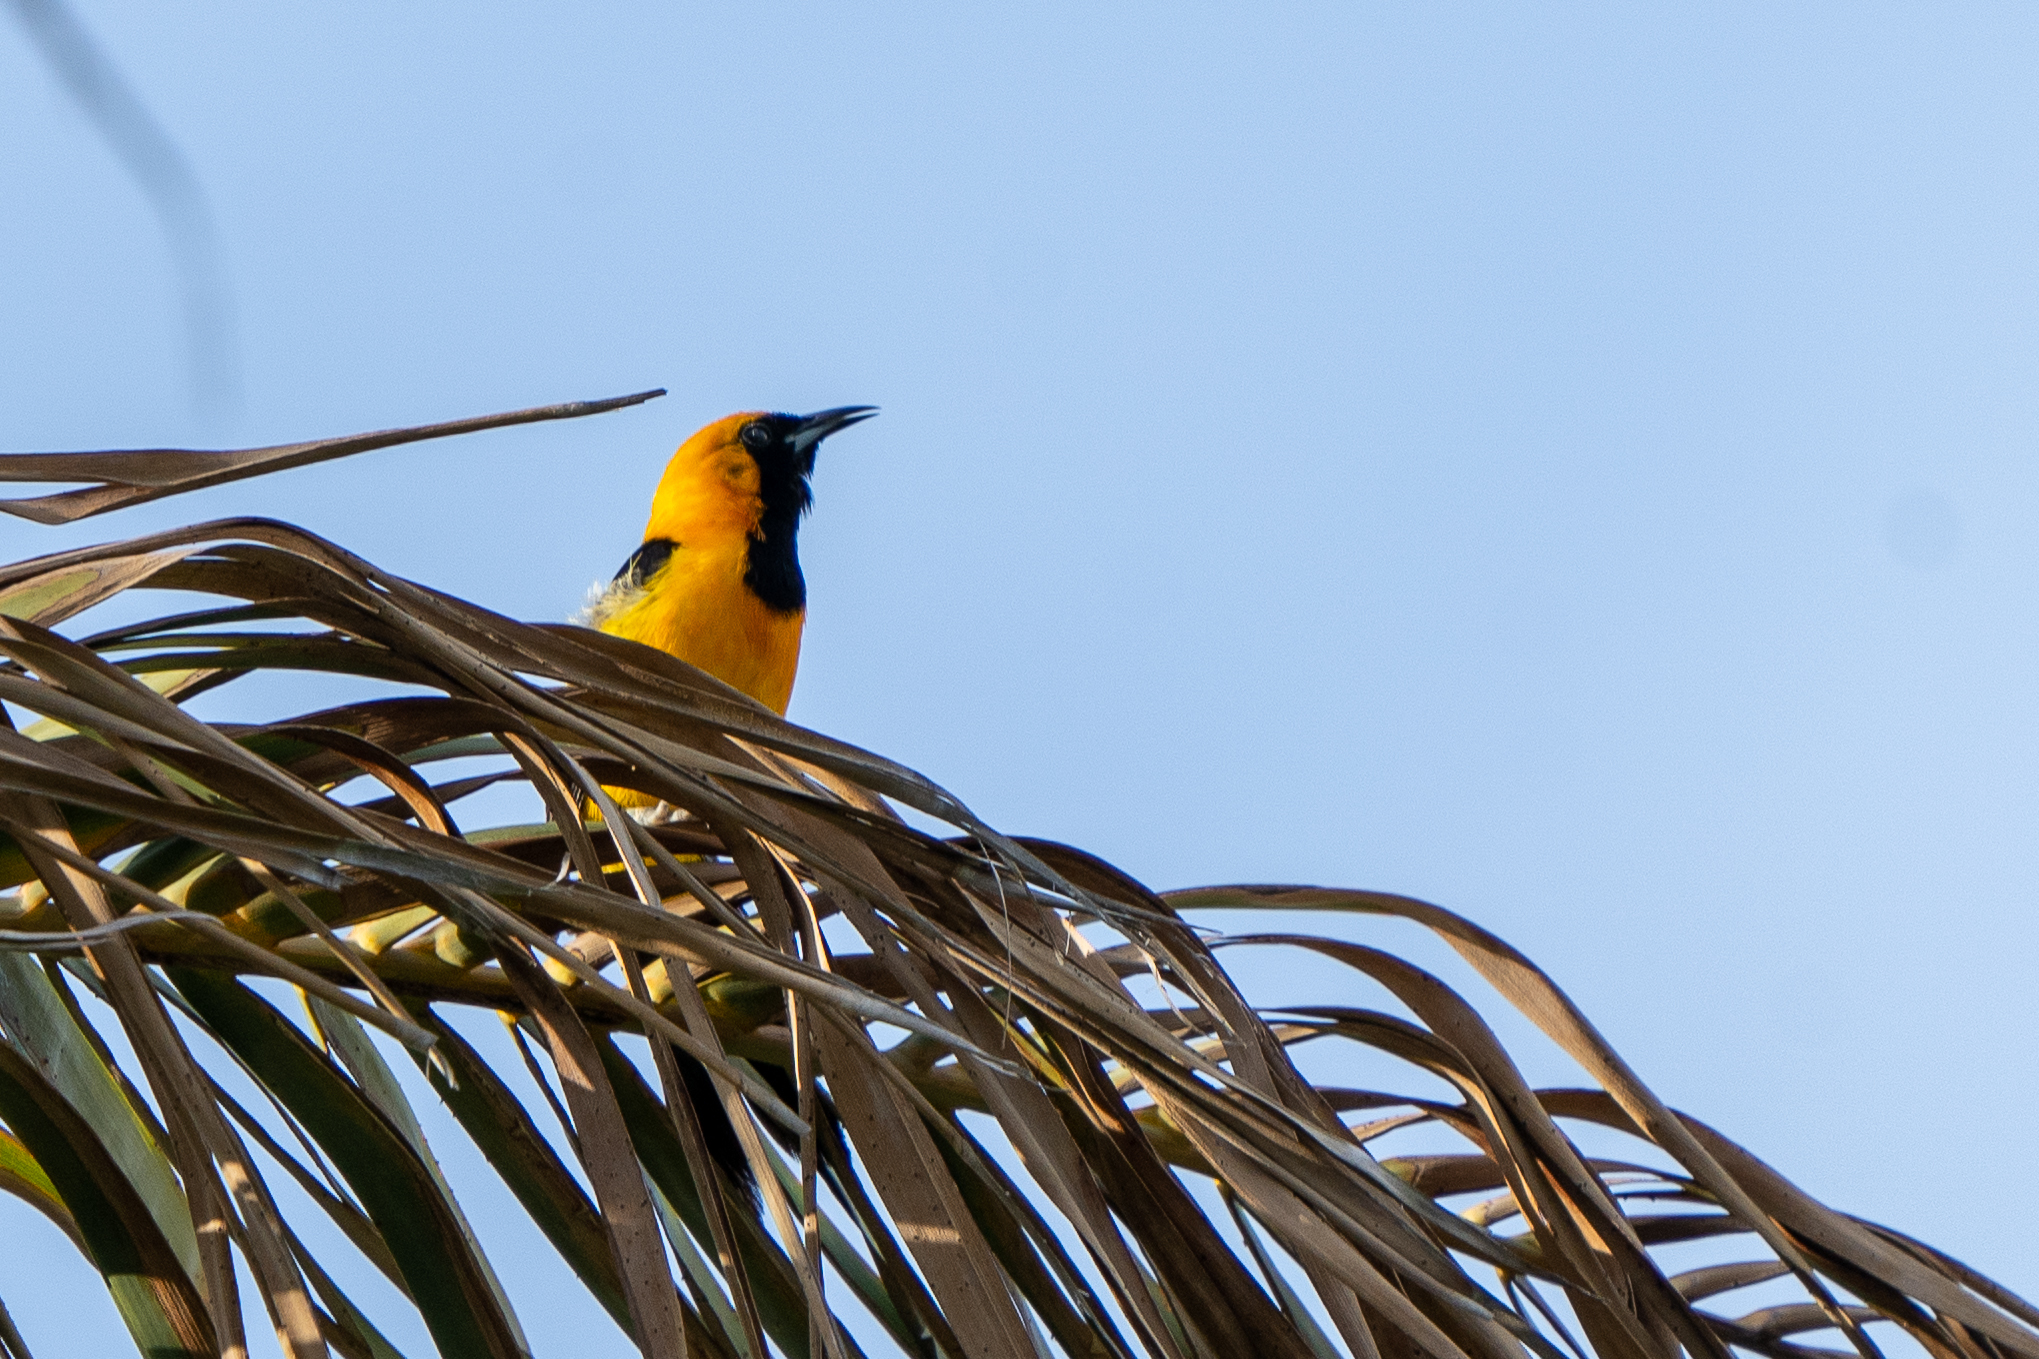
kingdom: Animalia
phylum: Chordata
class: Aves
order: Passeriformes
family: Icteridae
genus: Icterus
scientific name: Icterus cucullatus
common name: Hooded oriole
